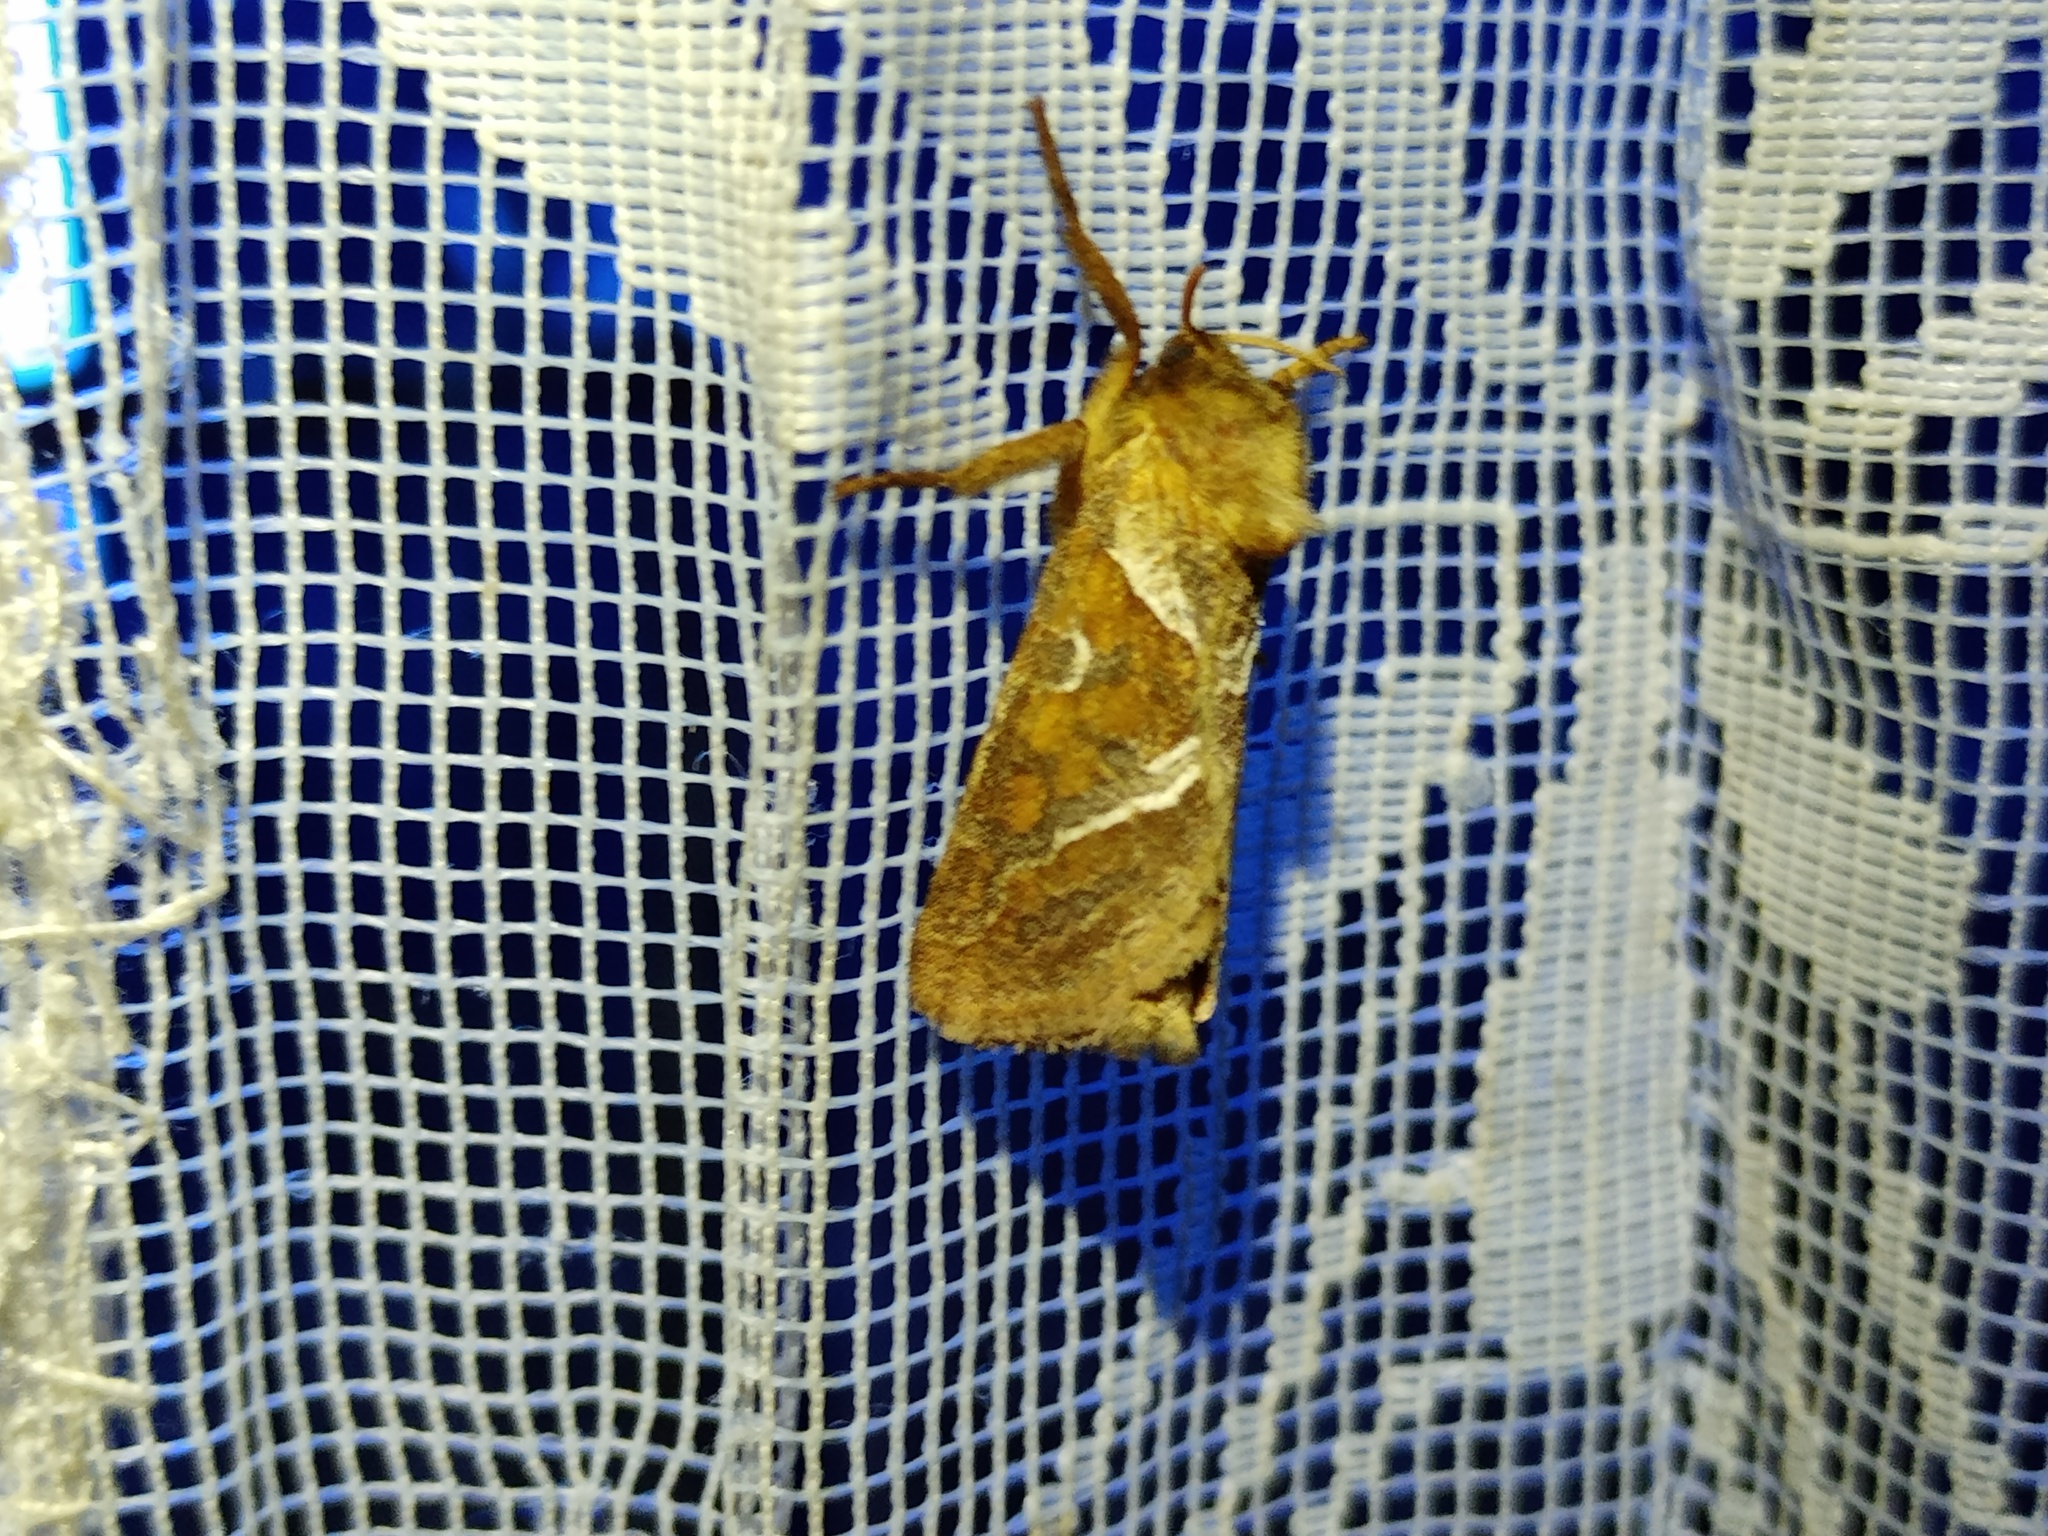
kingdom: Animalia
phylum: Arthropoda
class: Insecta
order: Lepidoptera
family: Hepialidae
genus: Triodia
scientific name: Triodia sylvina
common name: Orange swift
